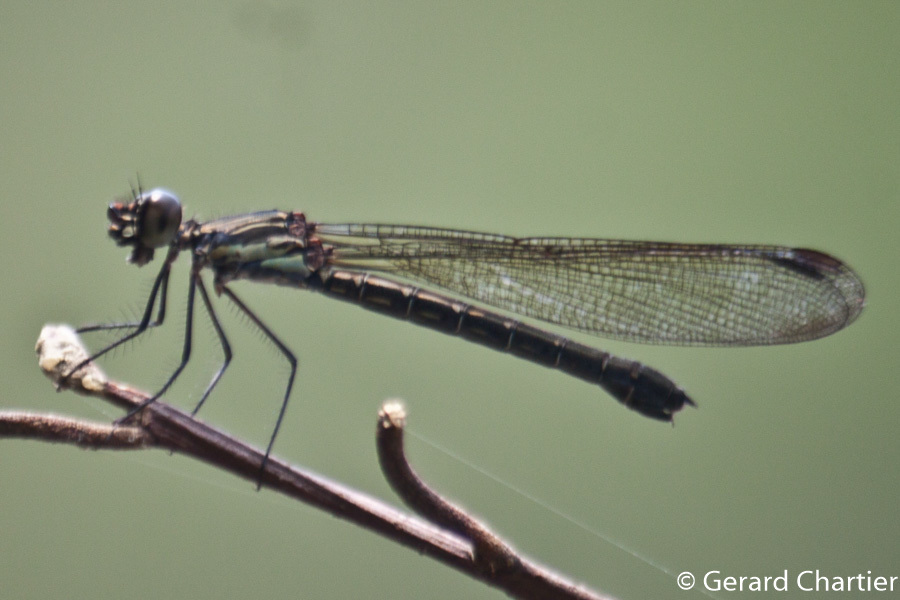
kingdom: Animalia
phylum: Arthropoda
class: Insecta
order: Odonata
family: Chlorocyphidae
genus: Heliocypha
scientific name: Heliocypha perforata
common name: Common blue jewel
